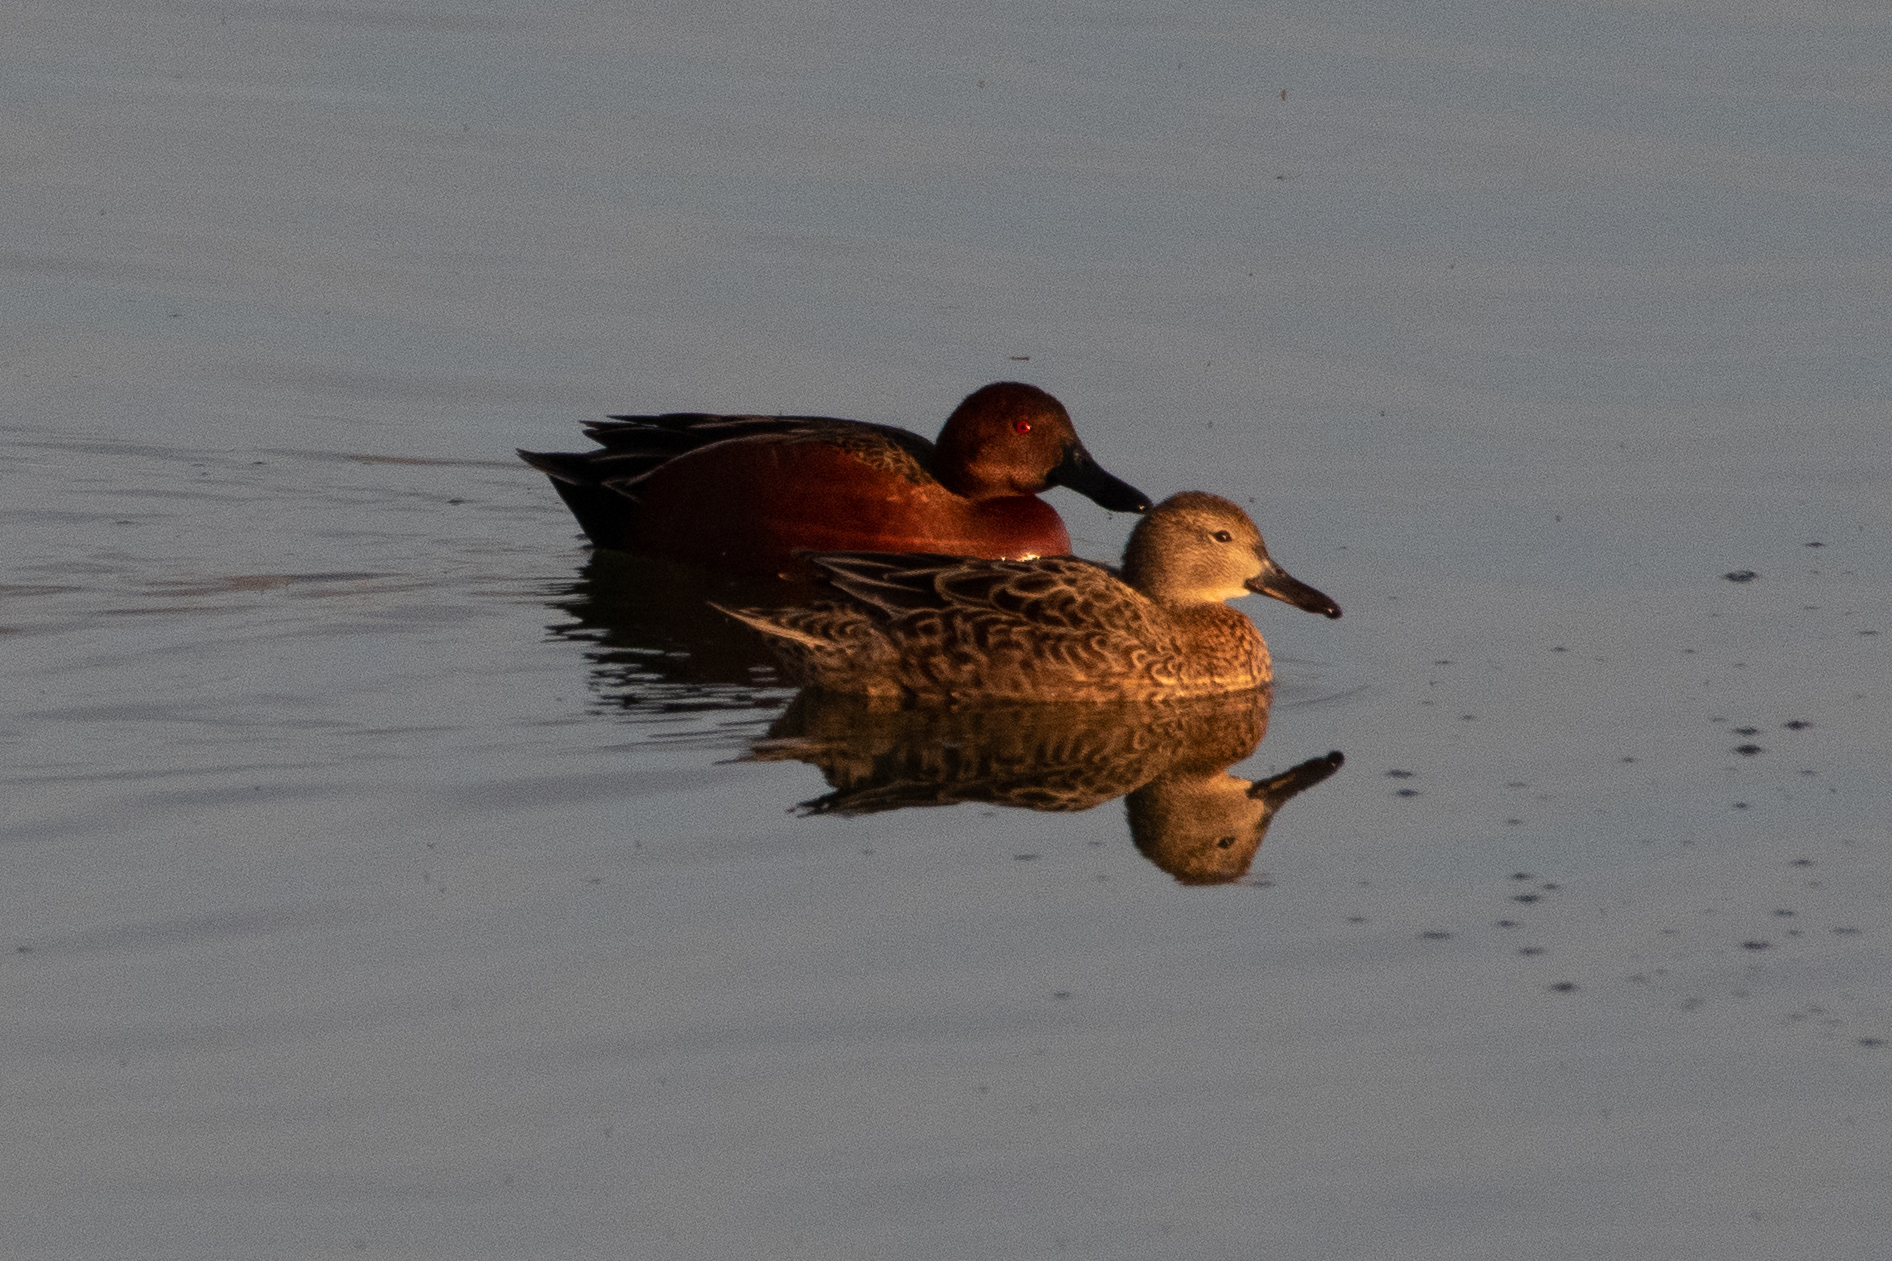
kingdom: Animalia
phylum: Chordata
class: Aves
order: Anseriformes
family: Anatidae
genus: Spatula
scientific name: Spatula cyanoptera
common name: Cinnamon teal
